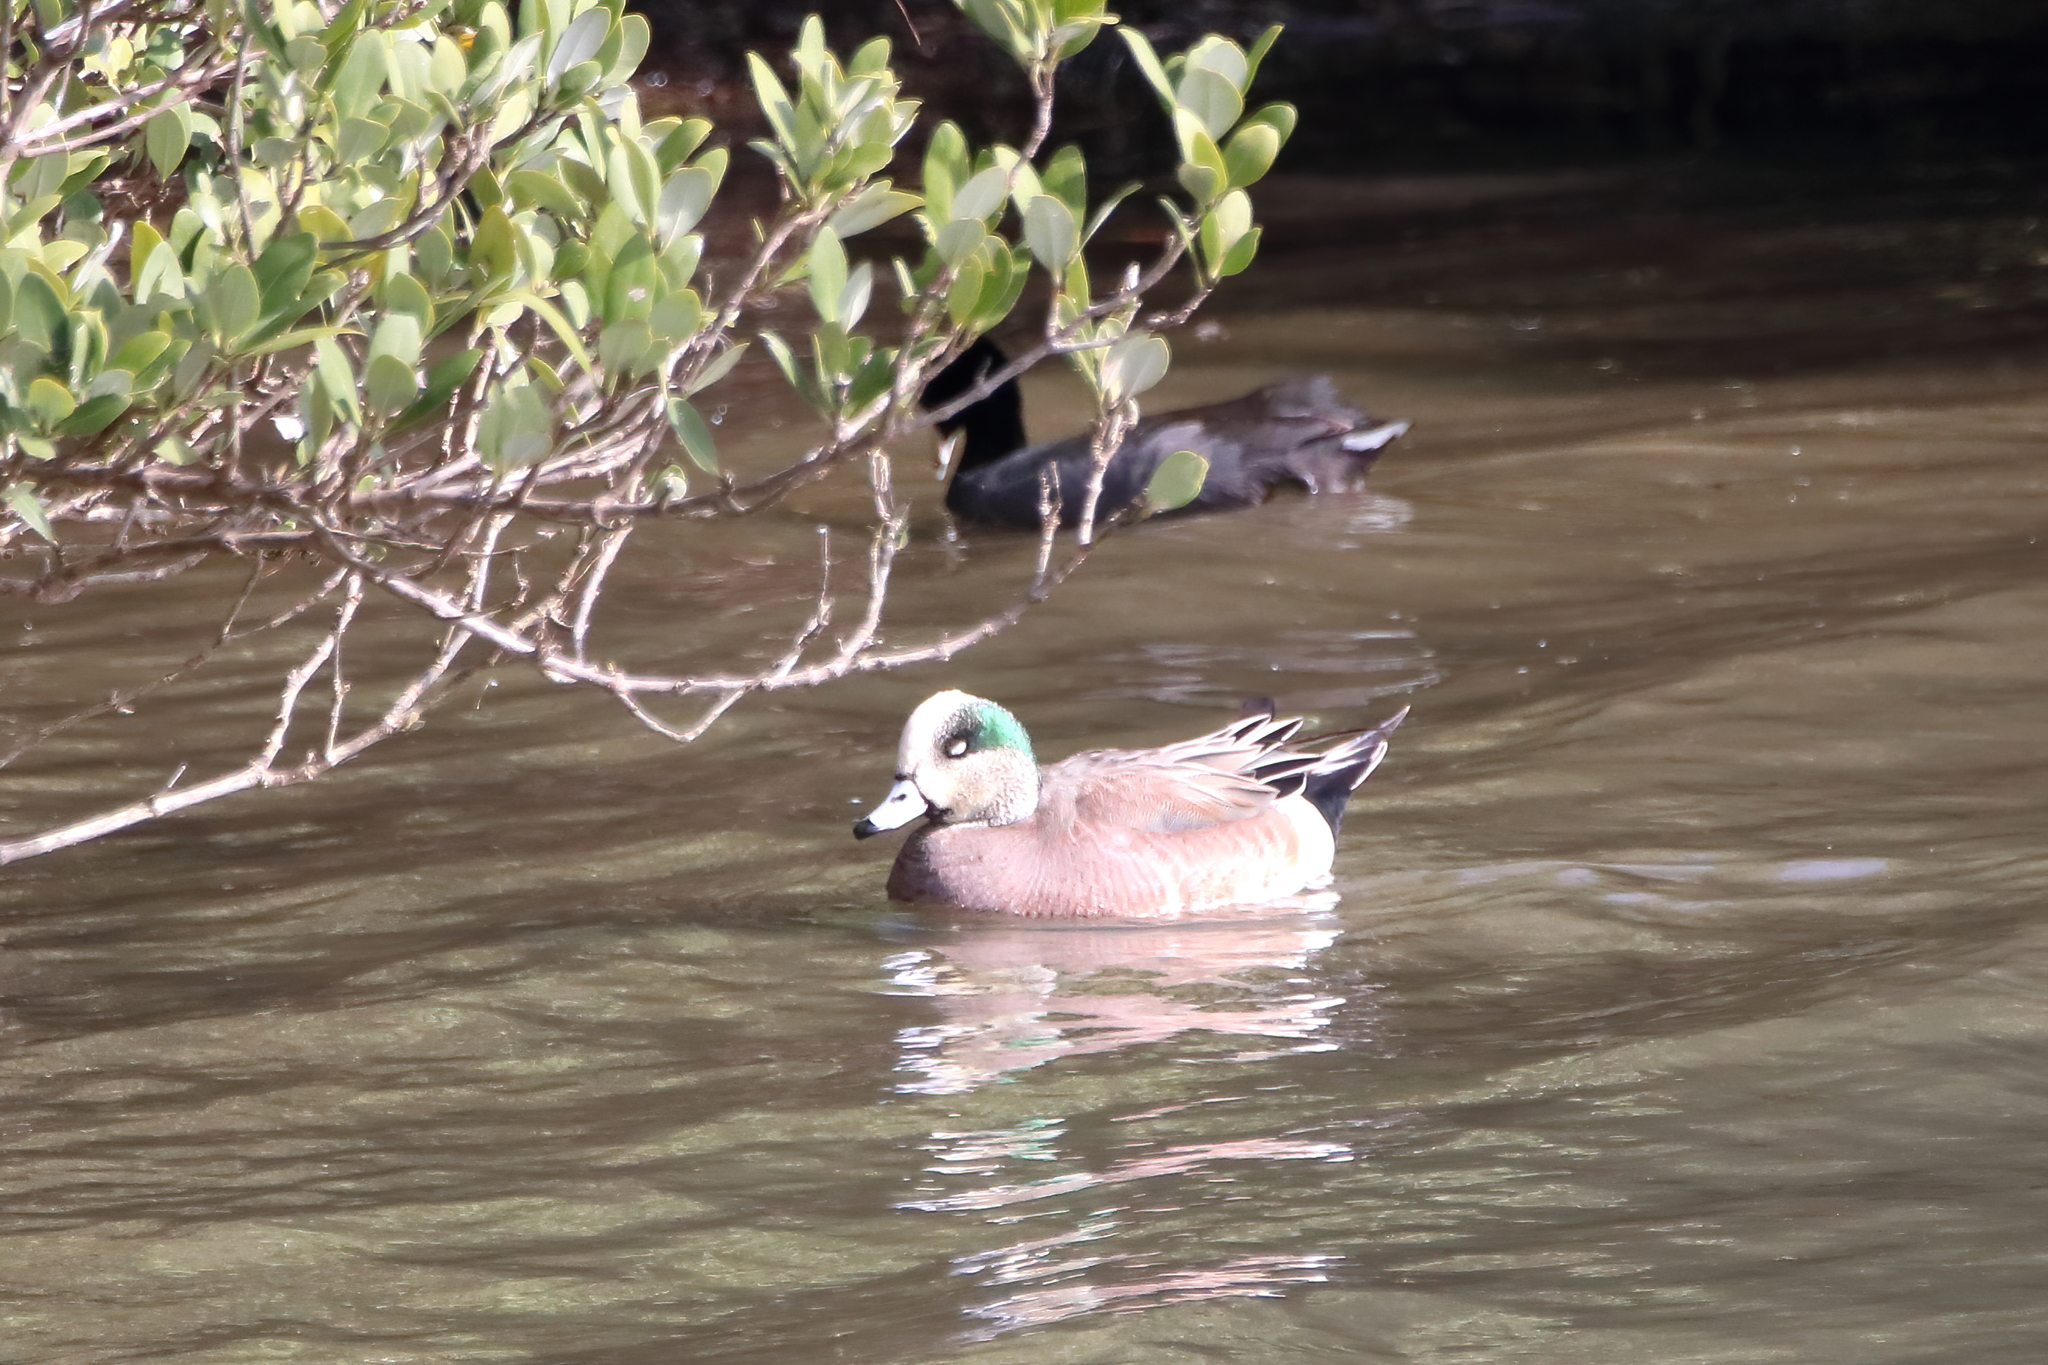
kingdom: Animalia
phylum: Chordata
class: Aves
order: Anseriformes
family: Anatidae
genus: Mareca
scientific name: Mareca americana
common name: American wigeon
